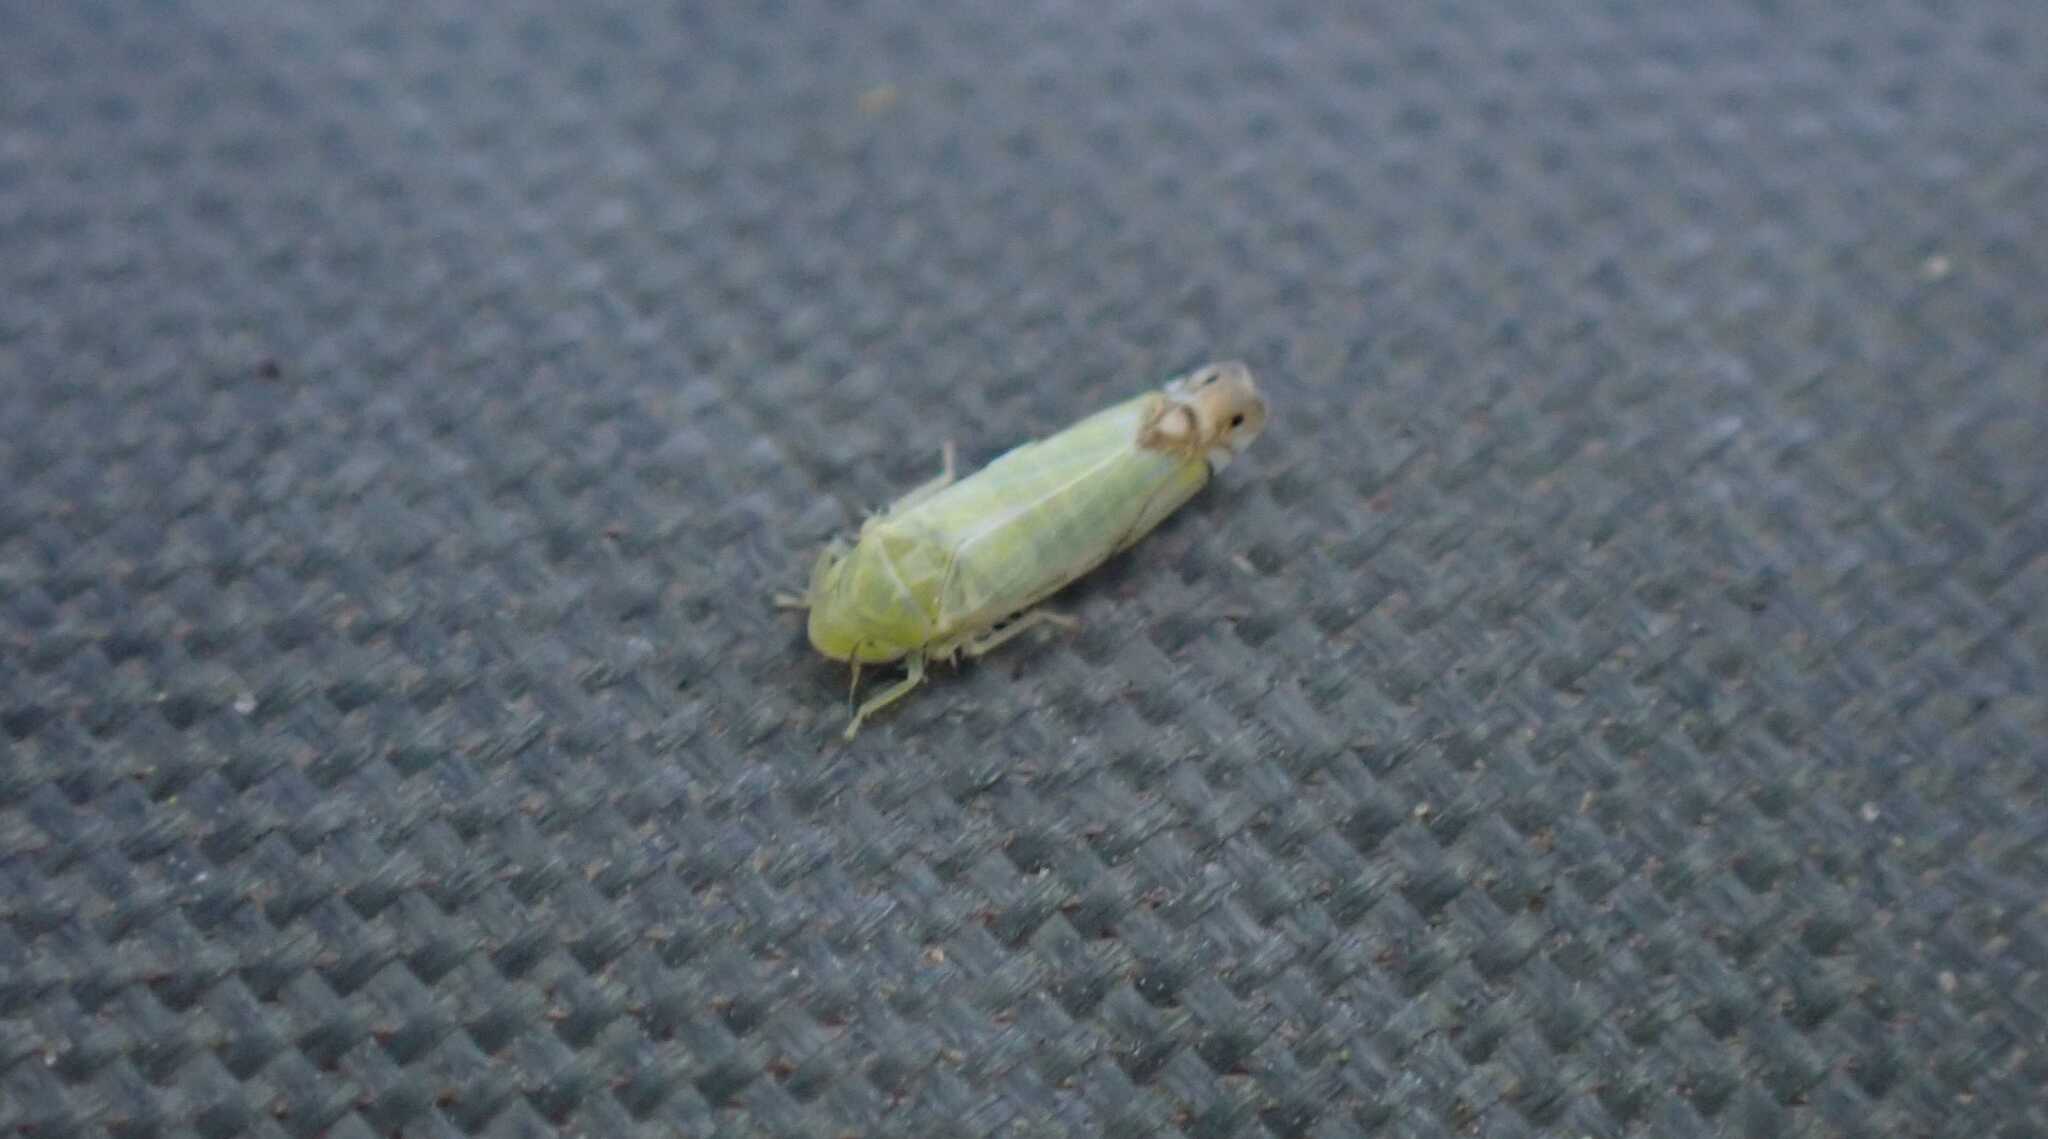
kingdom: Animalia
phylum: Arthropoda
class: Insecta
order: Hemiptera
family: Cicadellidae
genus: Zyginella
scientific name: Zyginella pulchra
